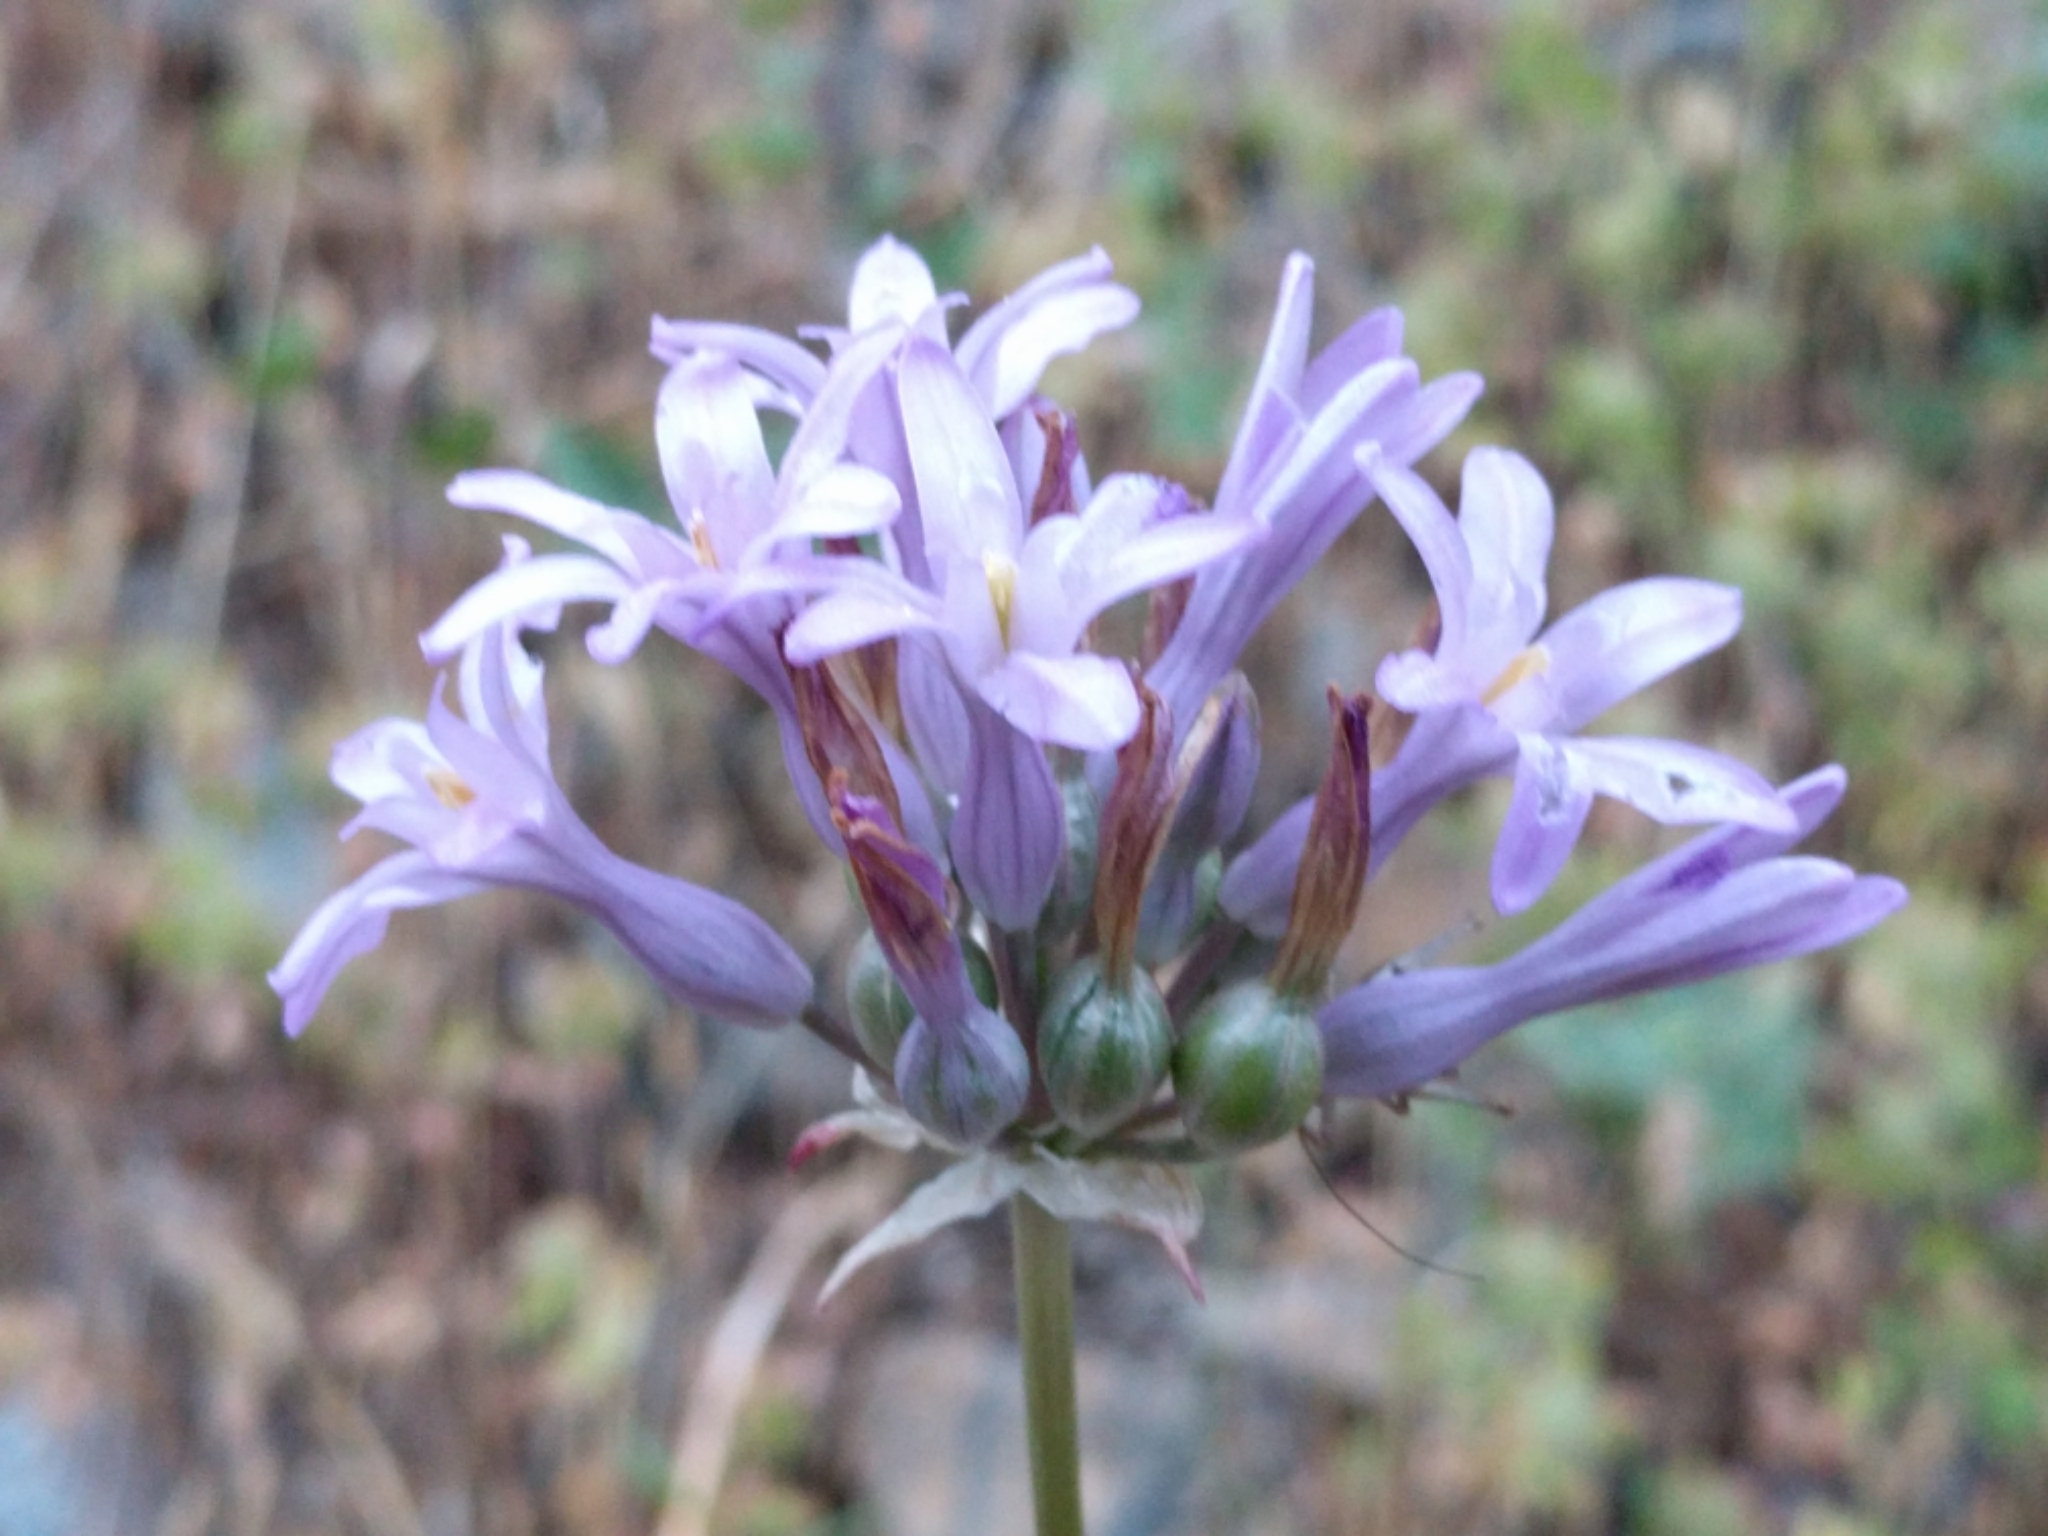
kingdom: Plantae
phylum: Tracheophyta
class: Liliopsida
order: Asparagales
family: Asparagaceae
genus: Dichelostemma
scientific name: Dichelostemma multiflorum
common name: Round-tooth ookow
